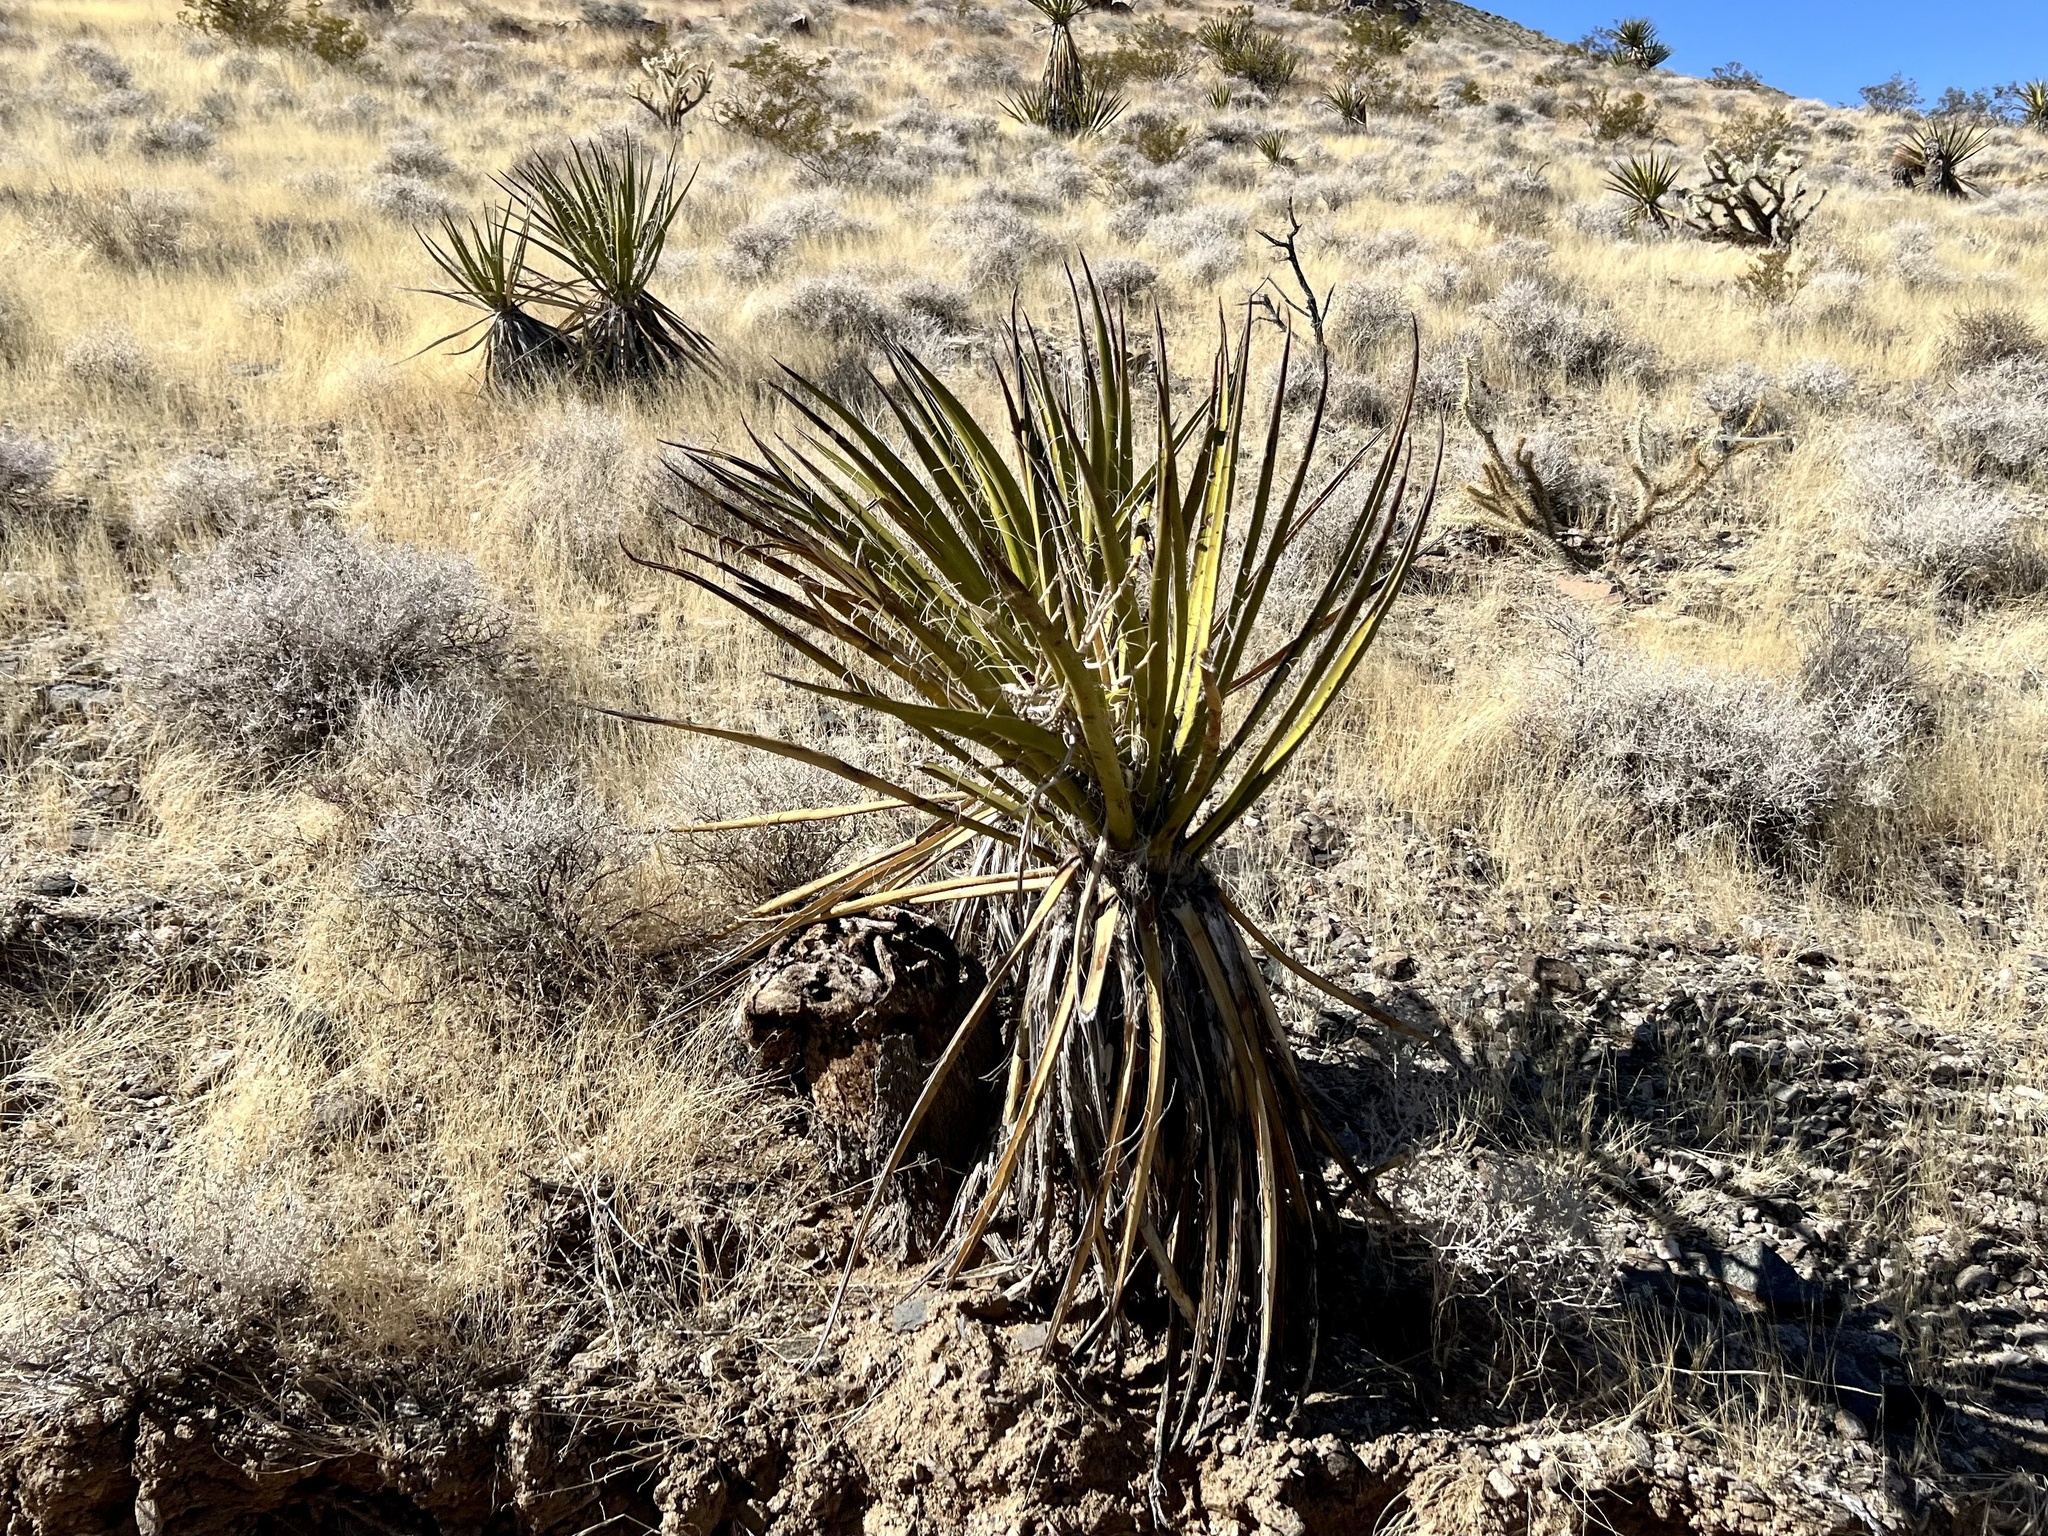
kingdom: Plantae
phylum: Tracheophyta
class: Liliopsida
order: Asparagales
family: Asparagaceae
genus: Yucca
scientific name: Yucca schidigera
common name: Mojave yucca
